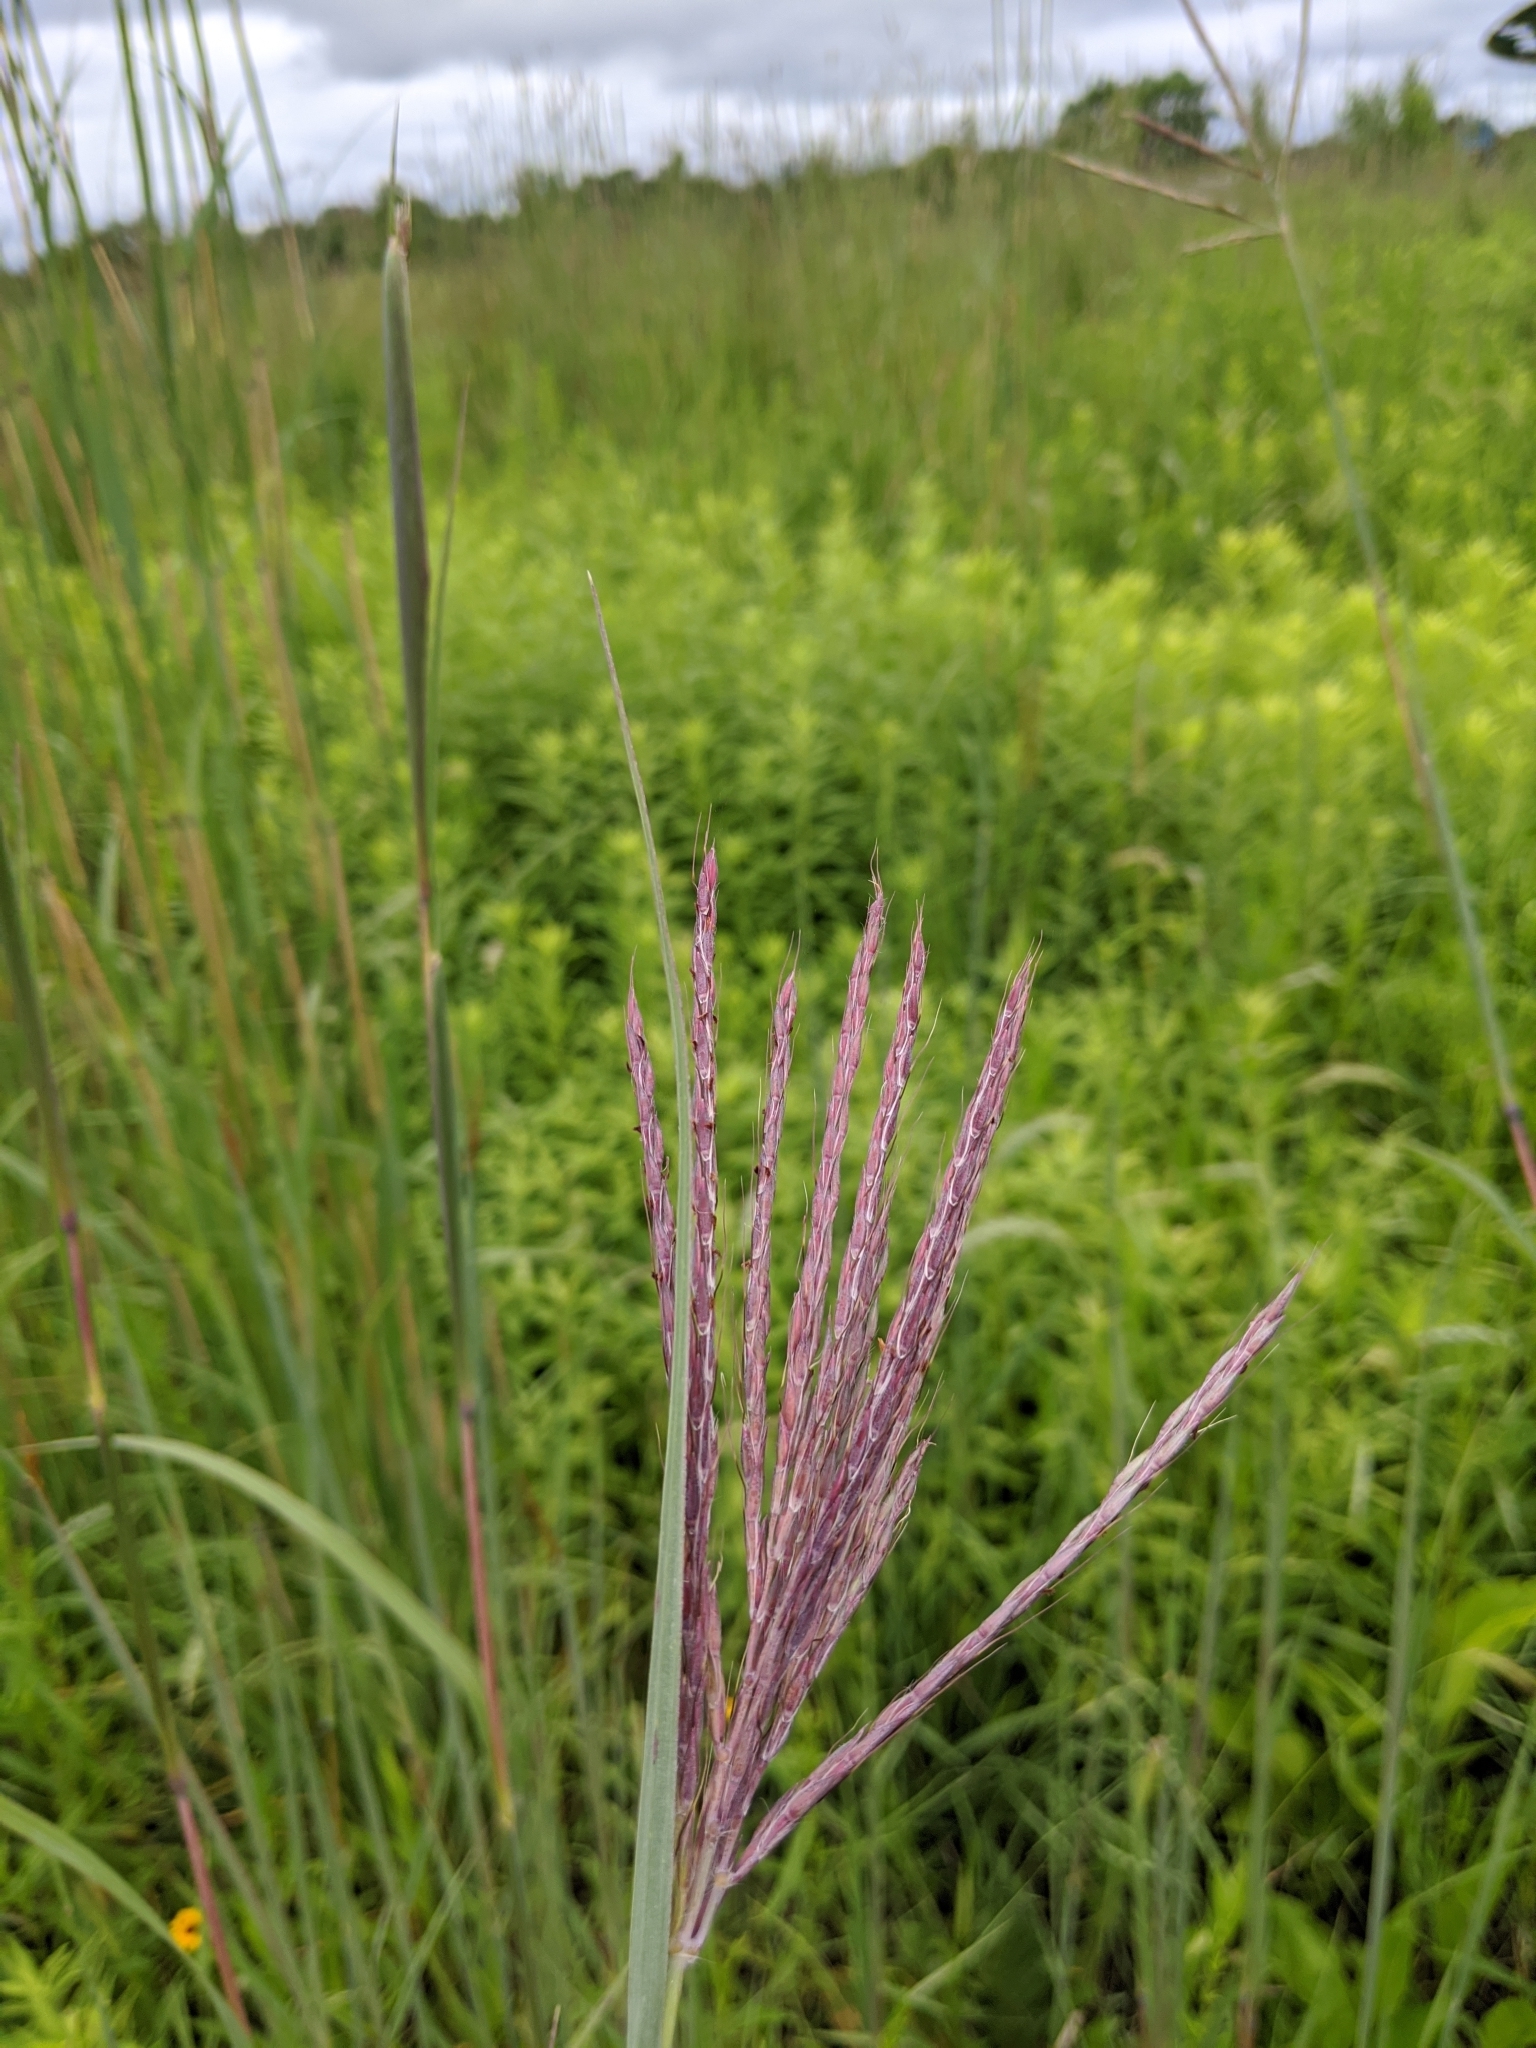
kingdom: Plantae
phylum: Tracheophyta
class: Liliopsida
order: Poales
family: Poaceae
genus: Andropogon
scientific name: Andropogon gerardi
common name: Big bluestem
